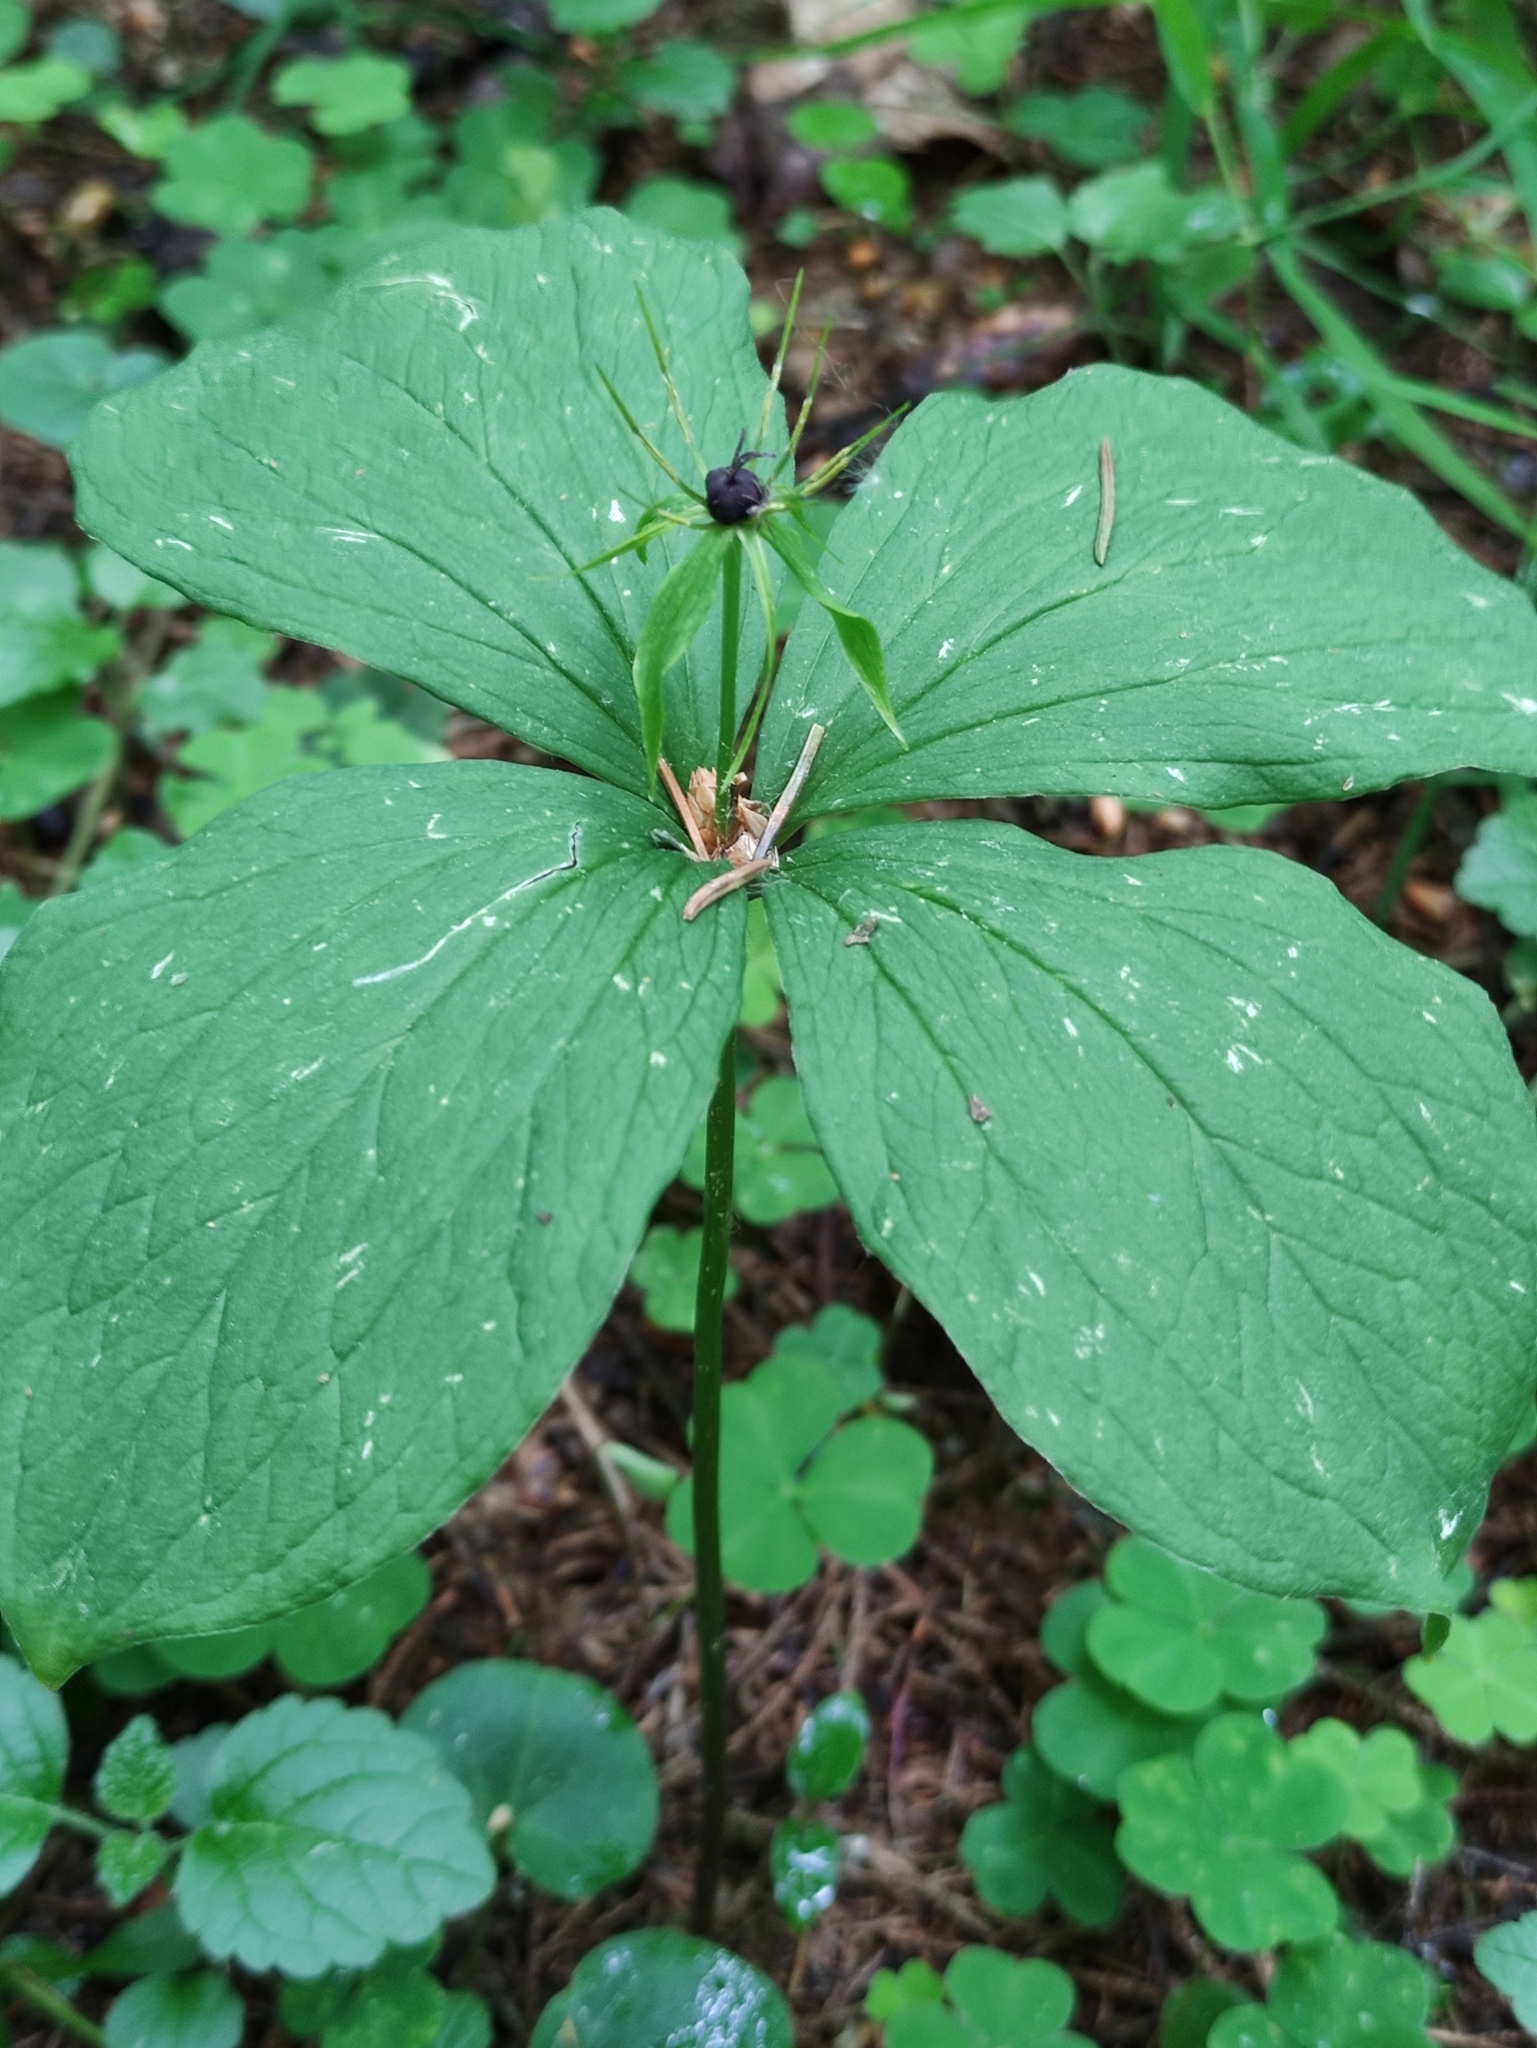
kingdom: Plantae
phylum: Tracheophyta
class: Liliopsida
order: Liliales
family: Melanthiaceae
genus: Paris
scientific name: Paris quadrifolia
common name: Herb-paris
